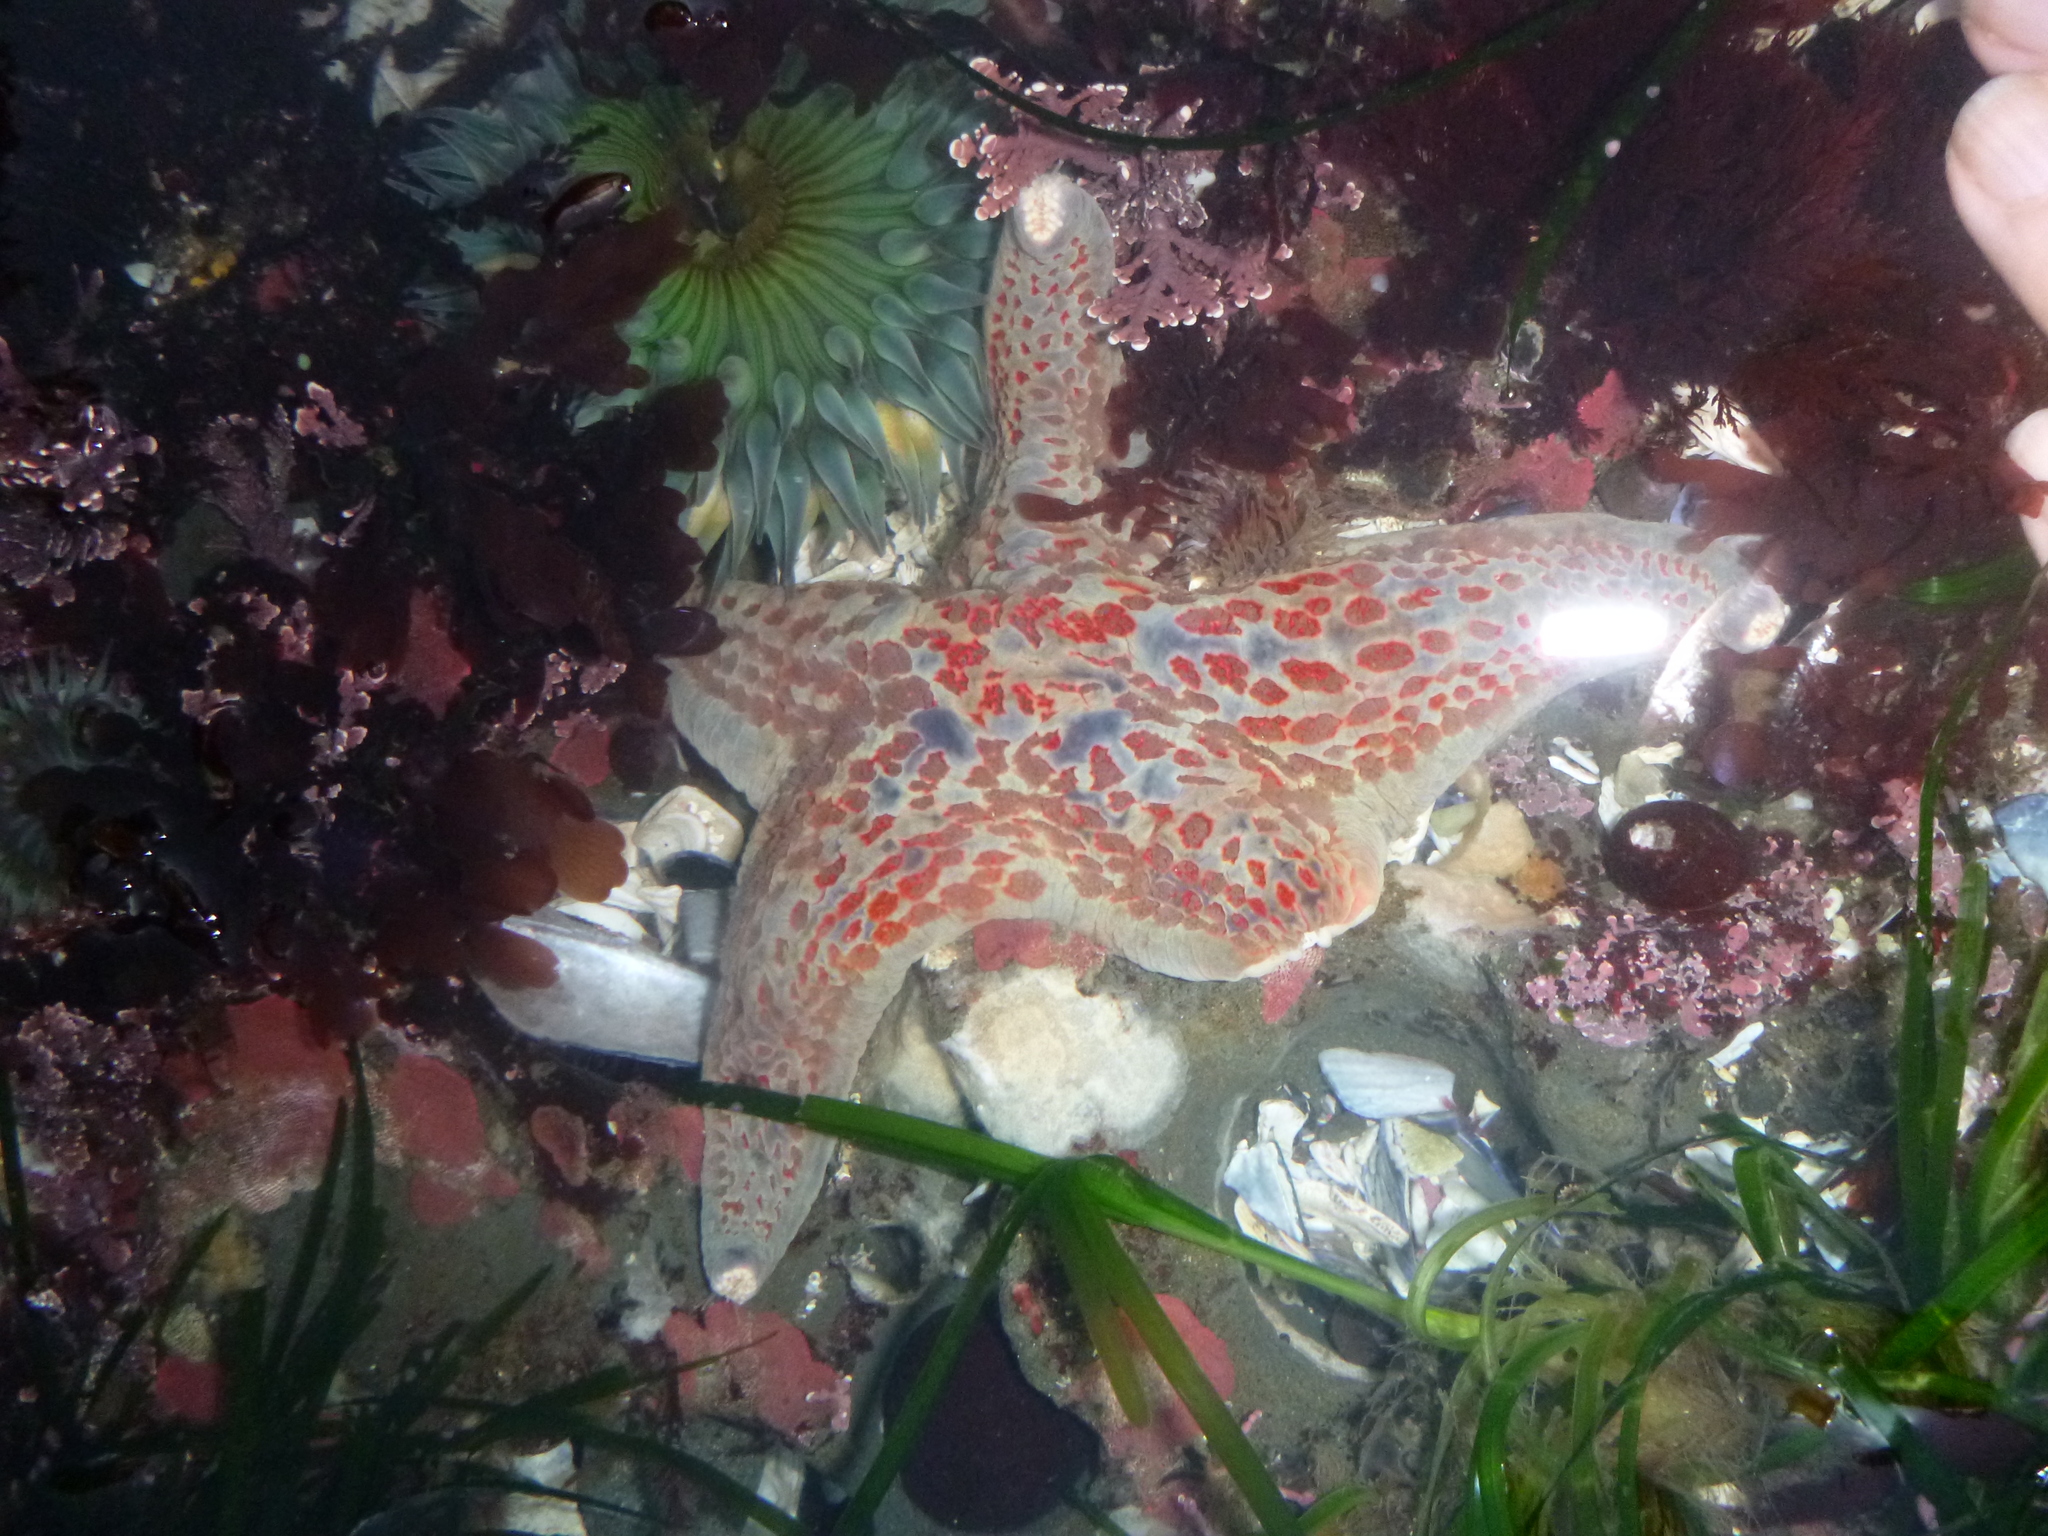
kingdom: Animalia
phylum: Echinodermata
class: Asteroidea
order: Valvatida
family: Asteropseidae
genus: Dermasterias
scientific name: Dermasterias imbricata
